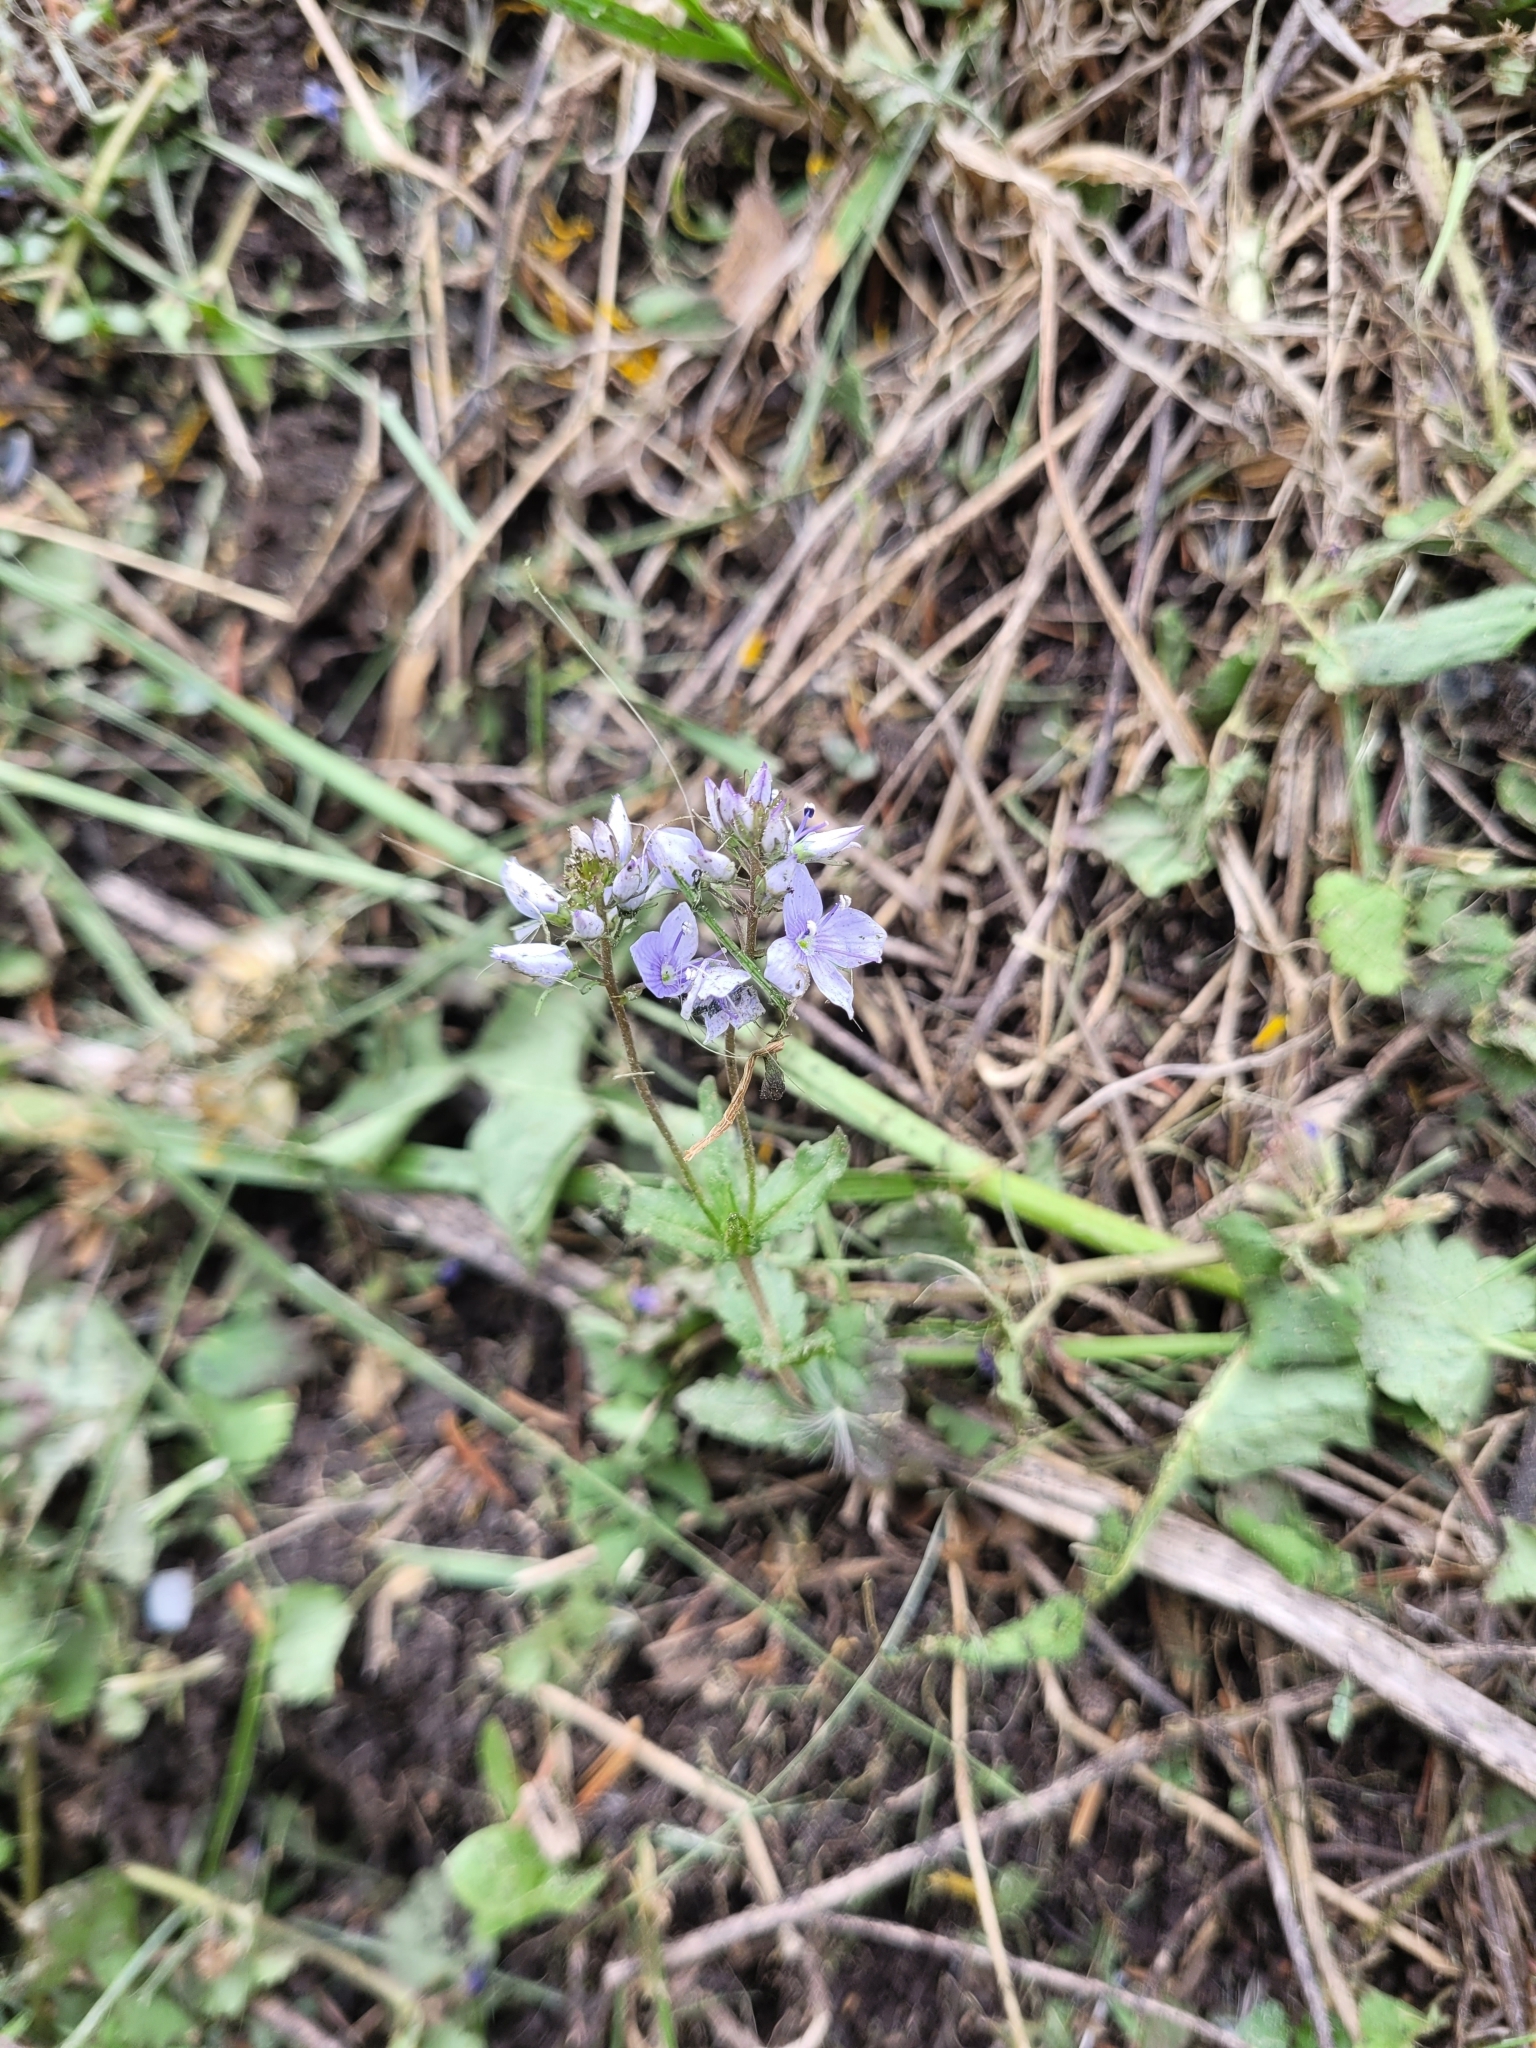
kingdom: Plantae
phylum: Tracheophyta
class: Magnoliopsida
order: Lamiales
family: Plantaginaceae
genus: Veronica
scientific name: Veronica prostrata
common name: Prostrate speedwell
